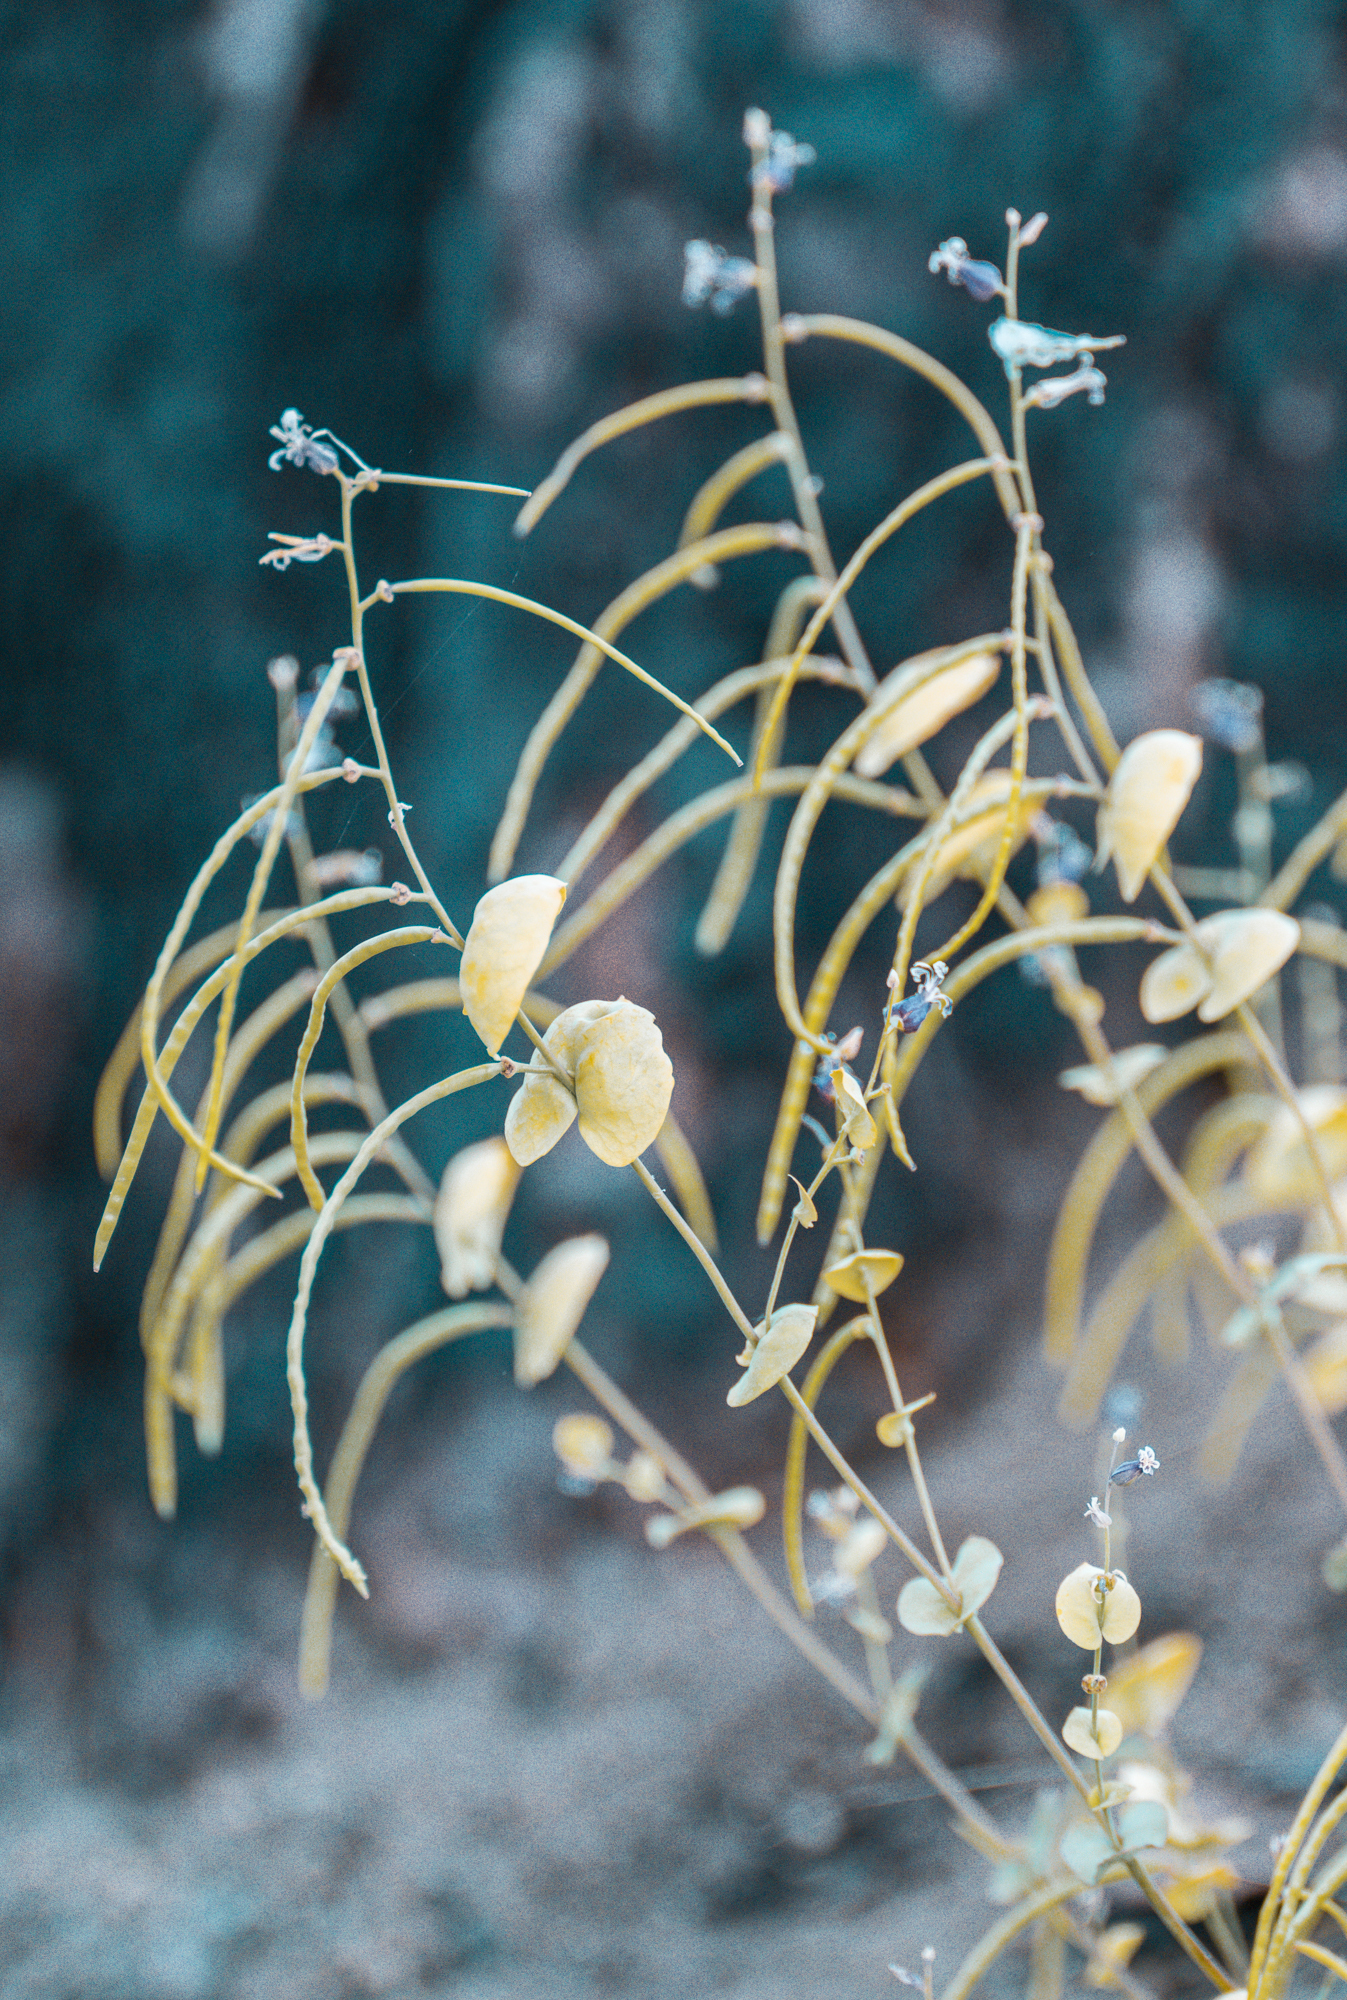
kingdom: Plantae
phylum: Tracheophyta
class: Magnoliopsida
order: Brassicales
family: Brassicaceae
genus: Streptanthus
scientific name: Streptanthus tortuosus
